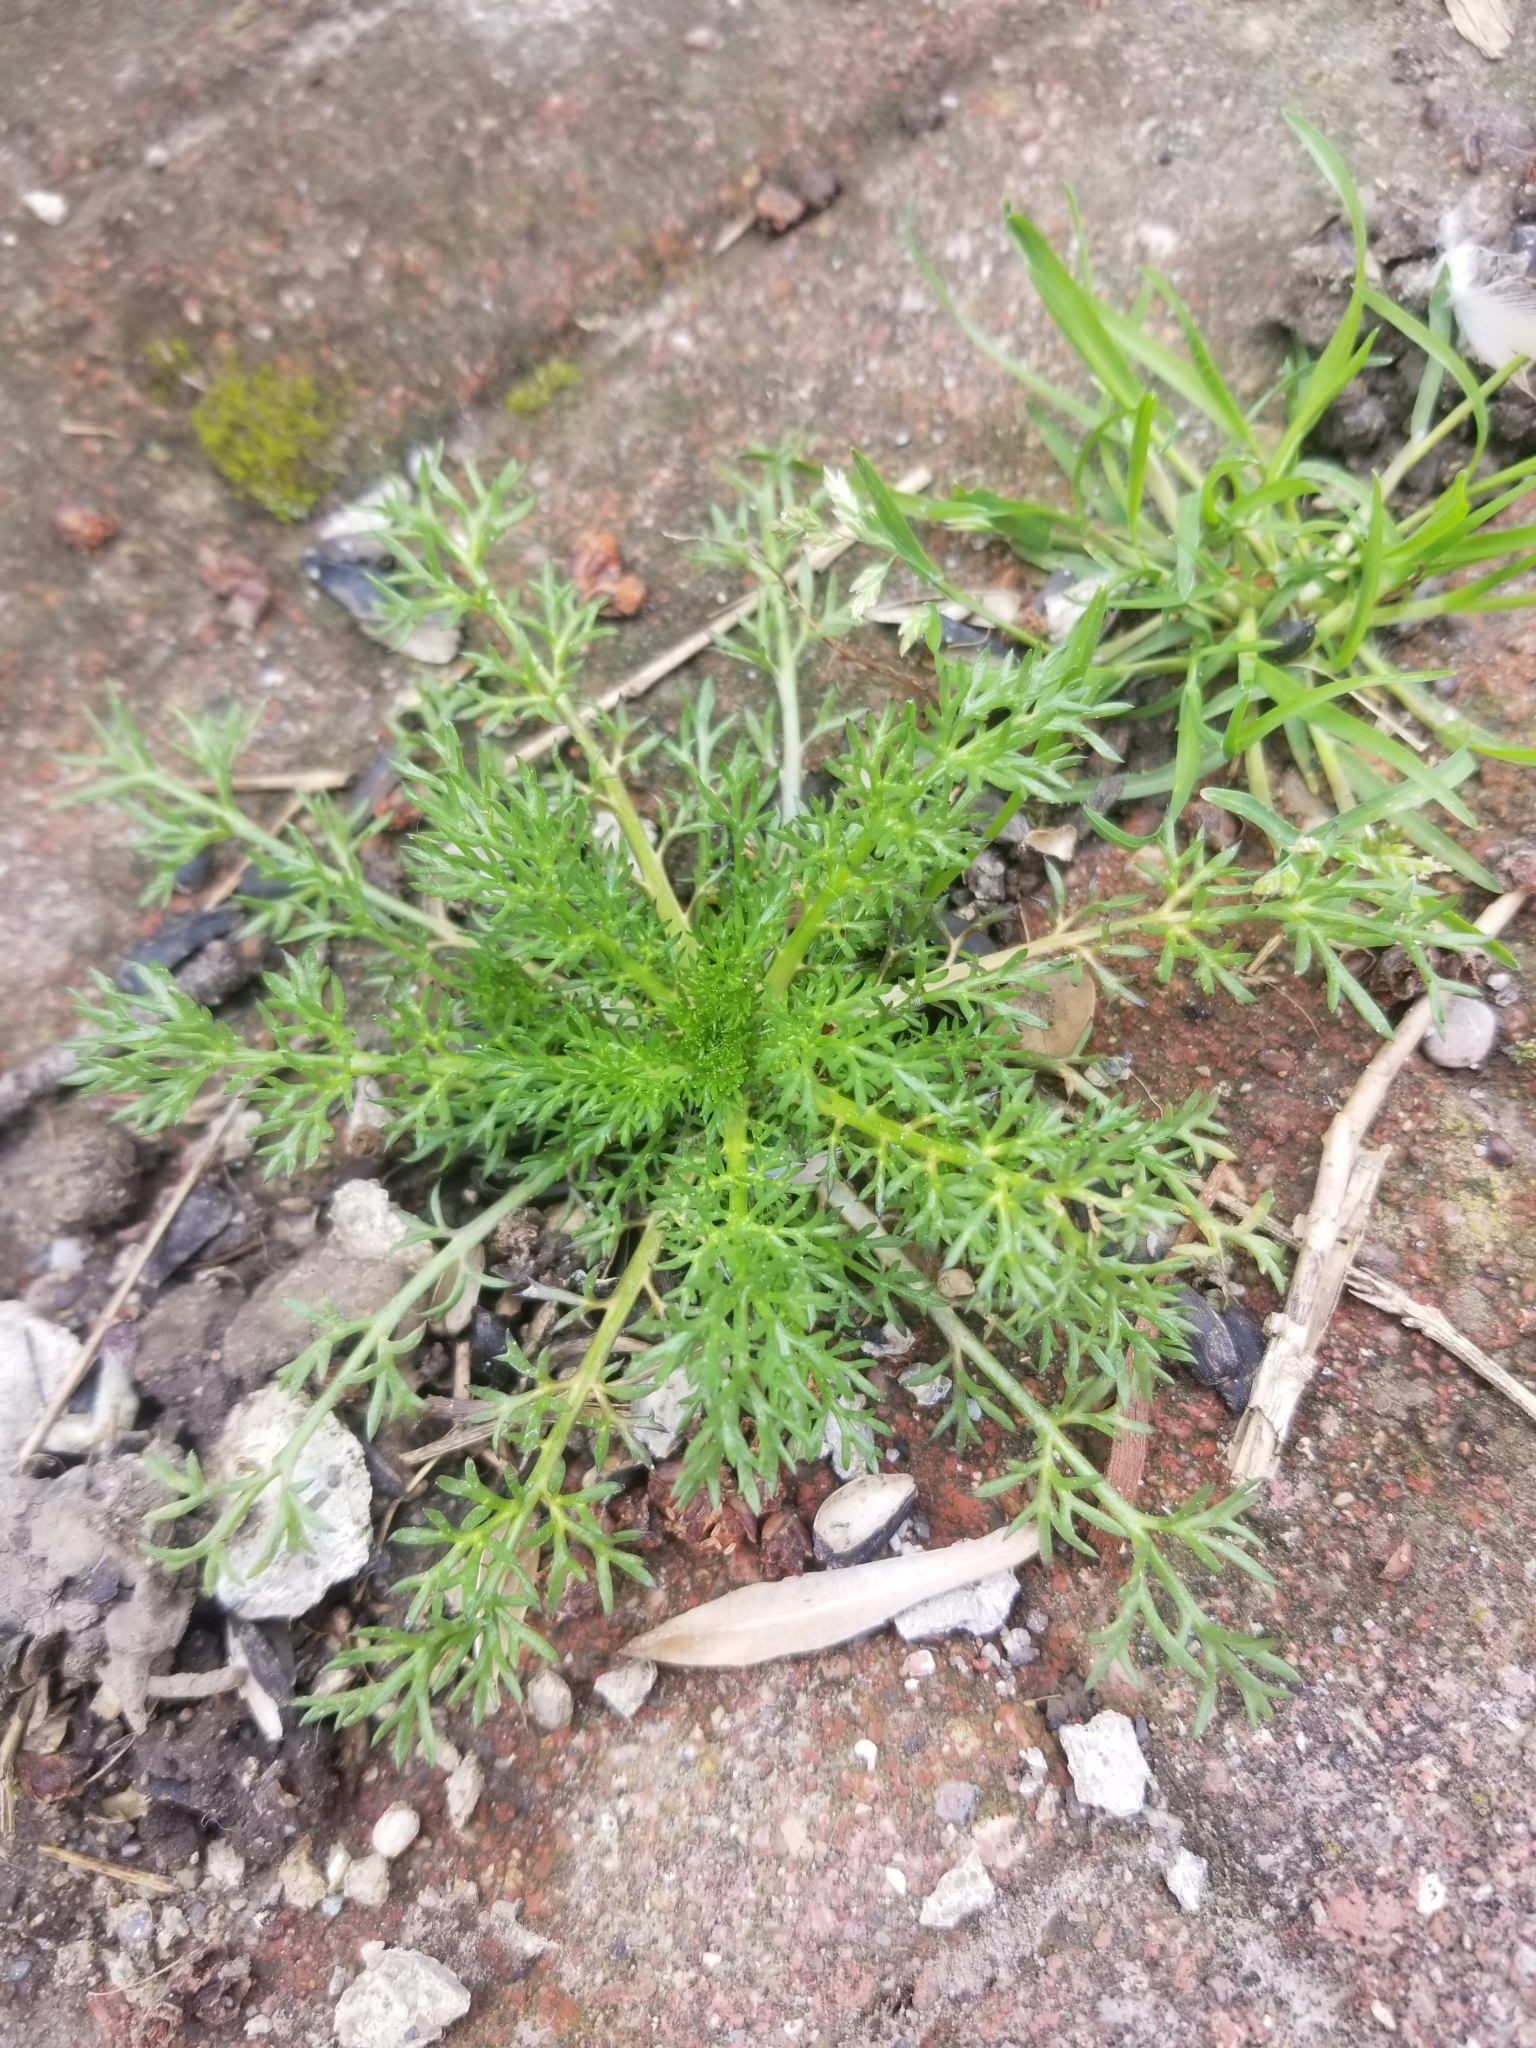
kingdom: Plantae
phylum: Tracheophyta
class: Magnoliopsida
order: Asterales
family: Asteraceae
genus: Matricaria
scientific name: Matricaria discoidea
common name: Disc mayweed
